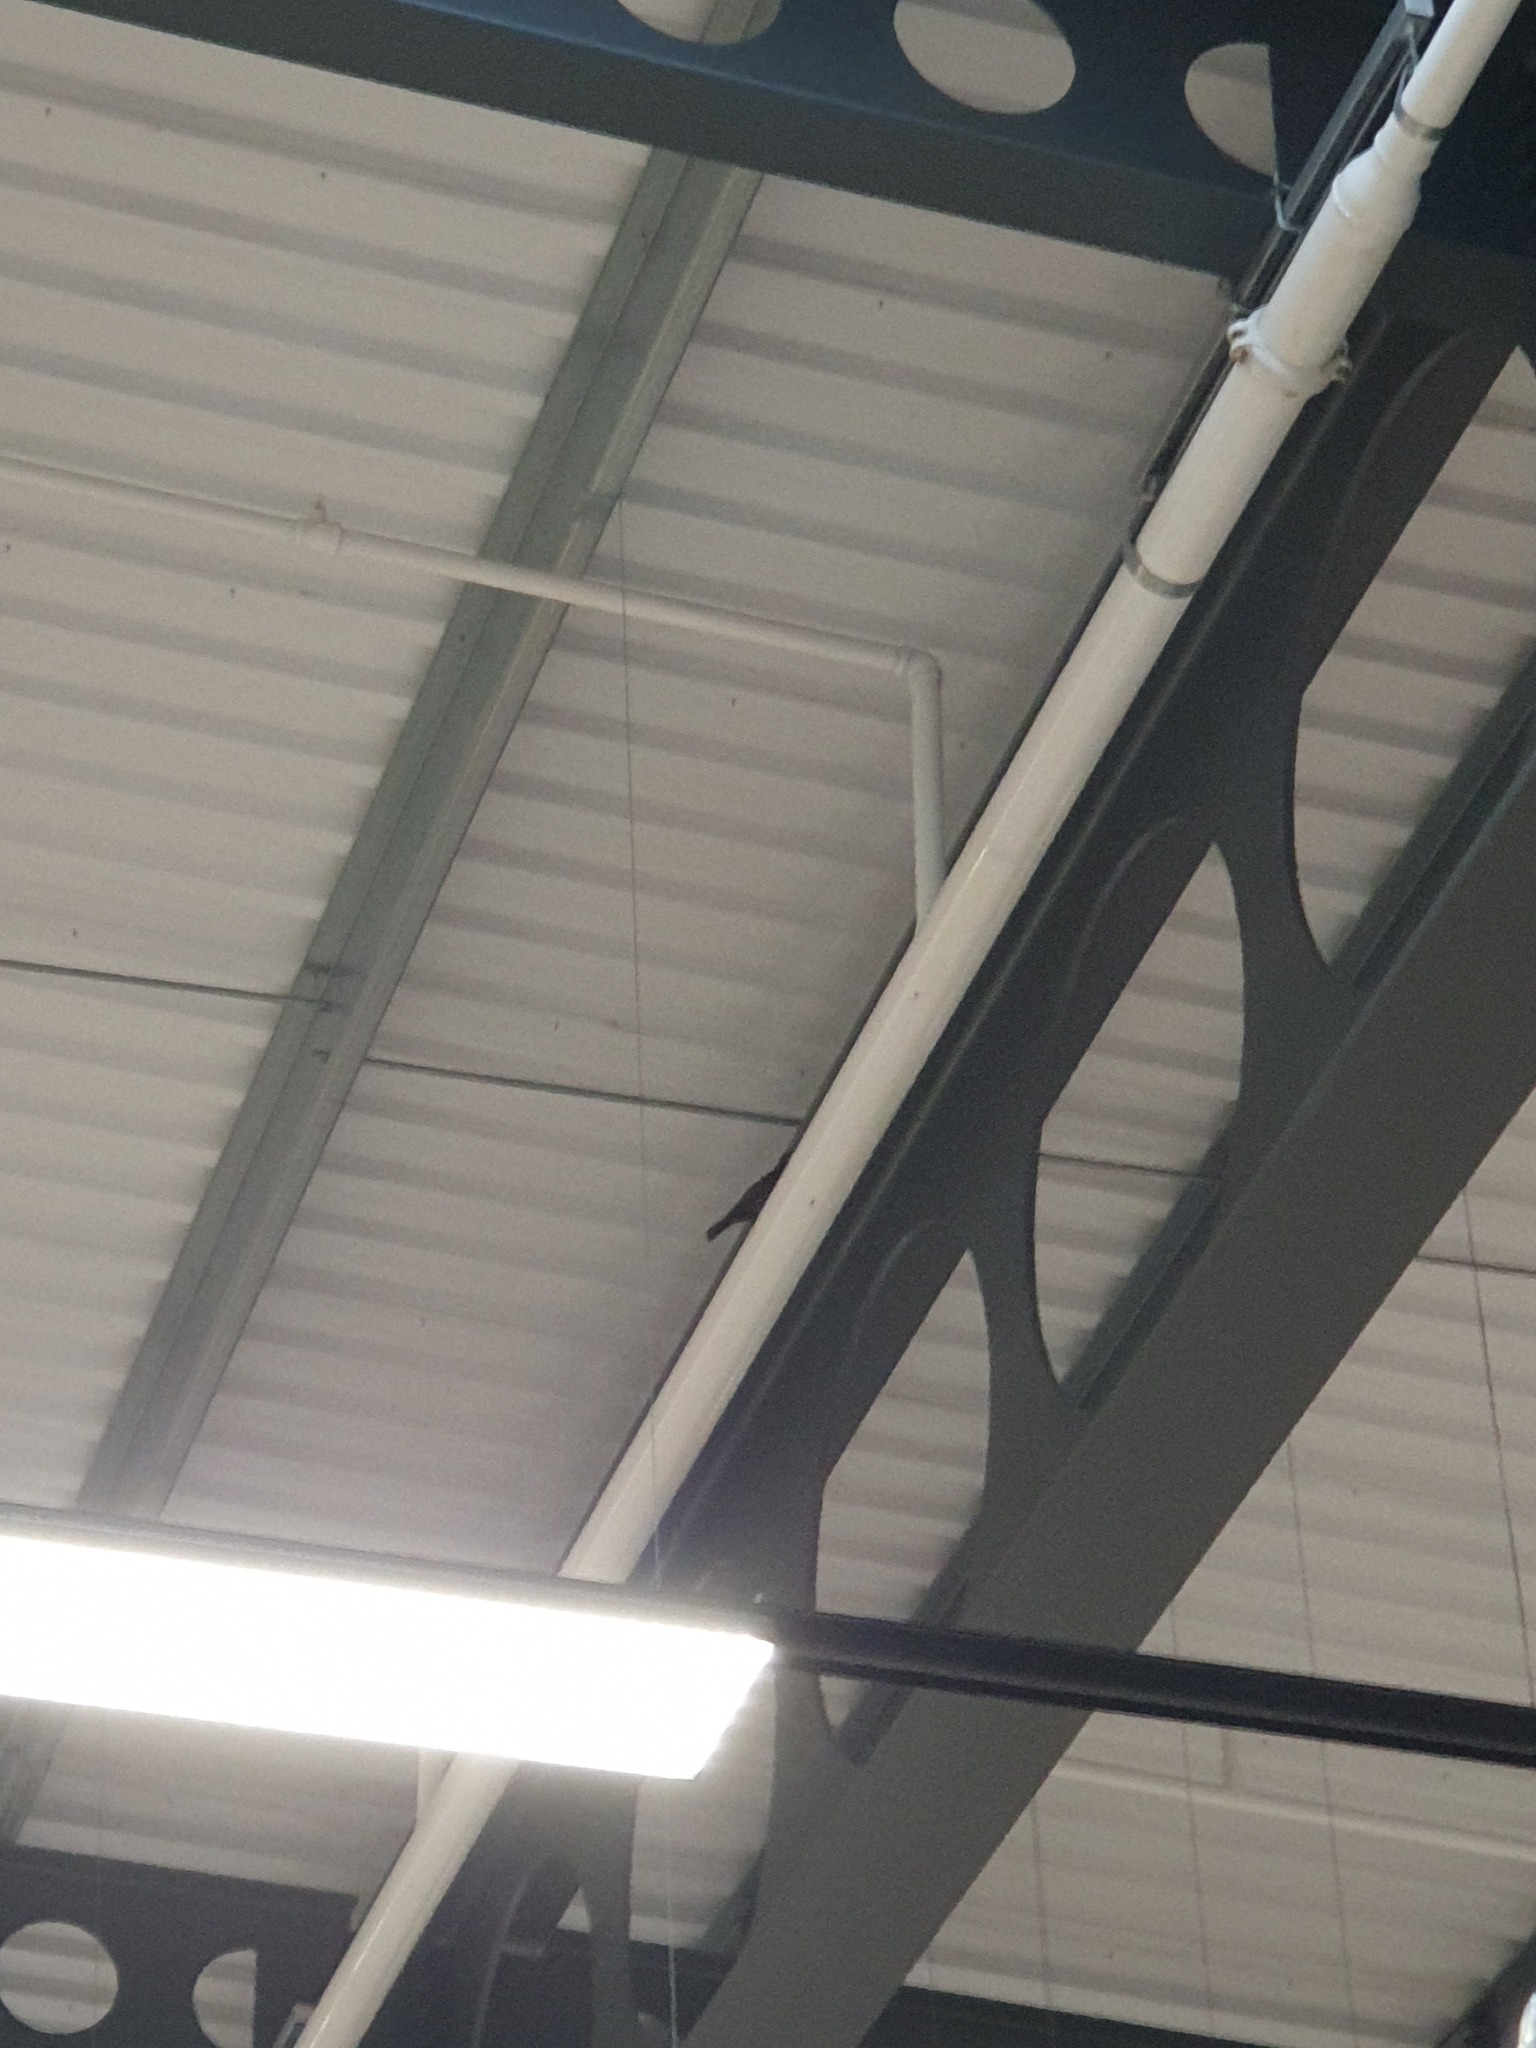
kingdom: Animalia
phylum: Chordata
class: Aves
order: Passeriformes
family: Turdidae
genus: Turdus
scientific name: Turdus merula
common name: Common blackbird
